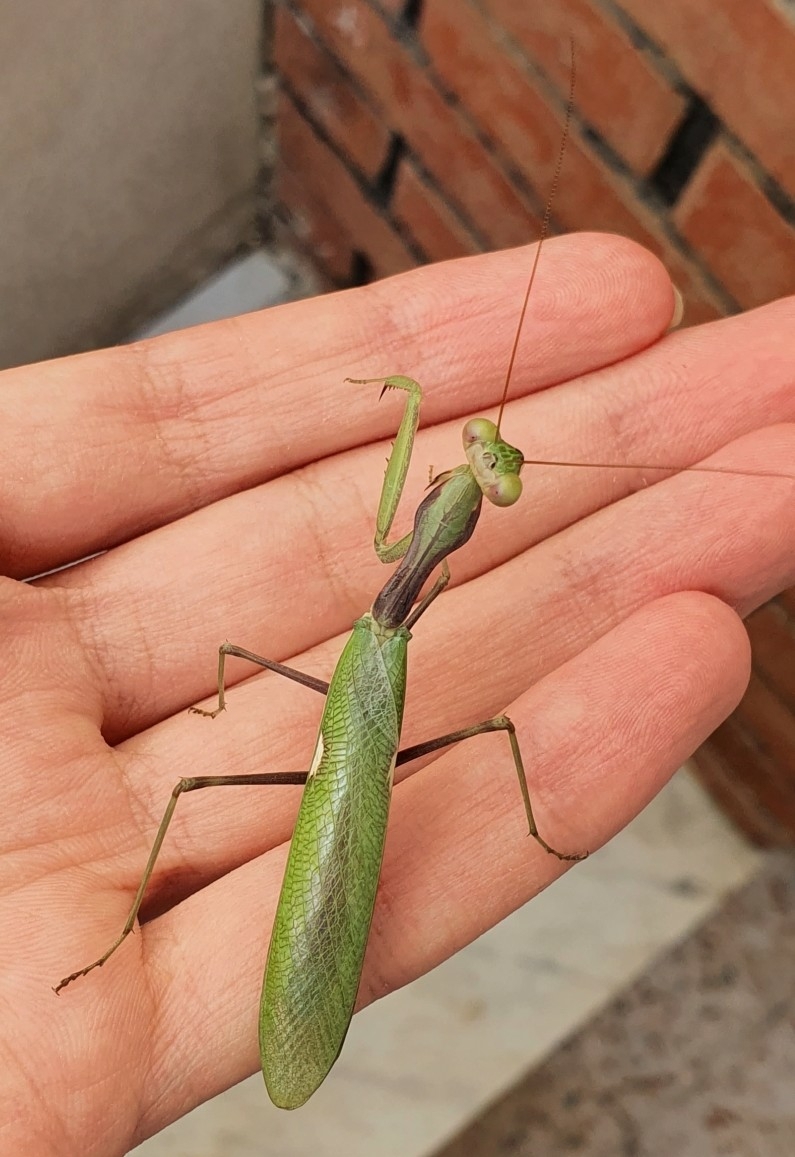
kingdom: Animalia
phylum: Arthropoda
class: Insecta
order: Mantodea
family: Mantidae
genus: Sphodromantis
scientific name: Sphodromantis viridis
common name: Giant african mantis
